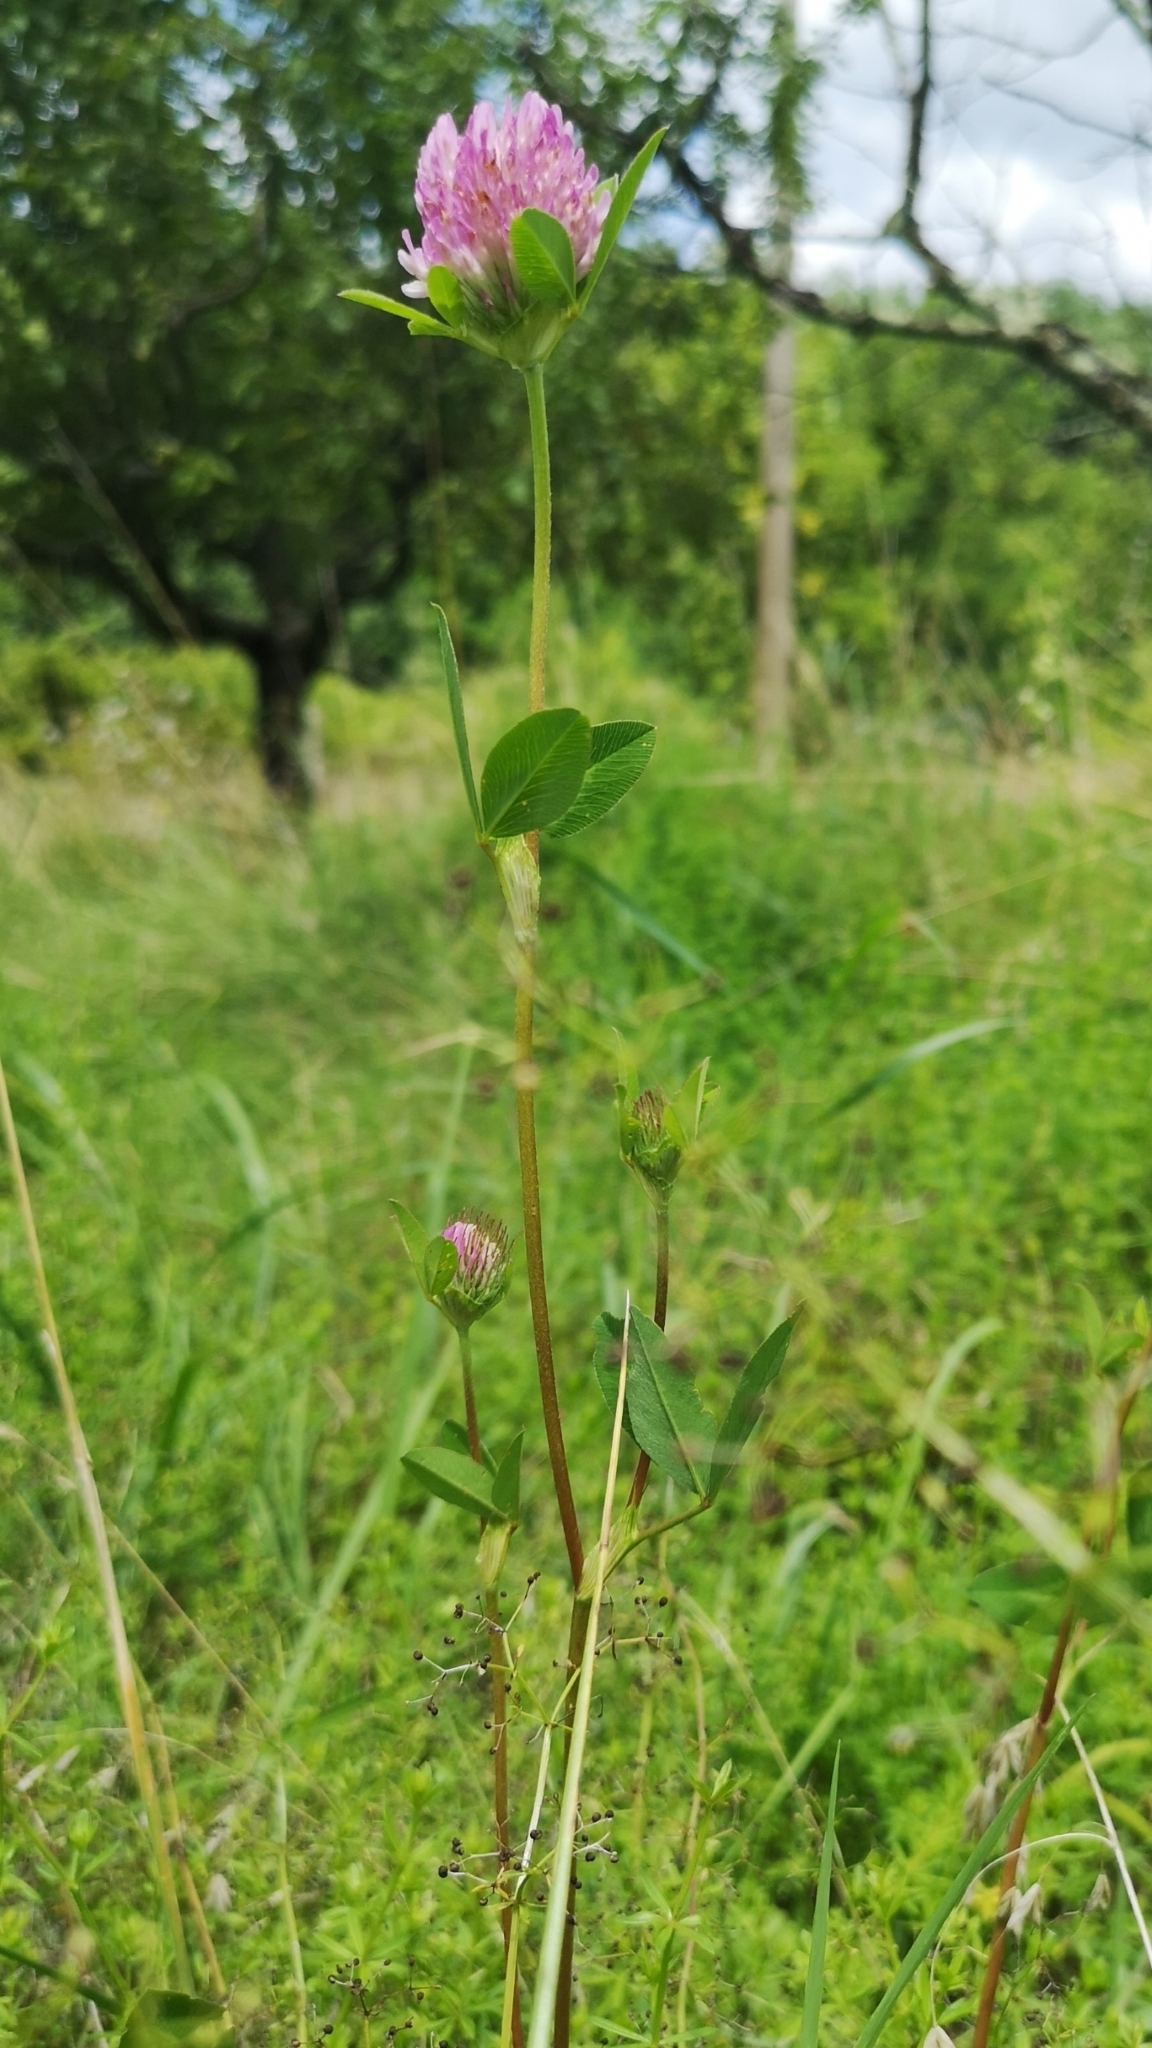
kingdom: Plantae
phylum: Tracheophyta
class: Magnoliopsida
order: Fabales
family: Fabaceae
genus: Trifolium
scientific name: Trifolium pratense
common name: Red clover
